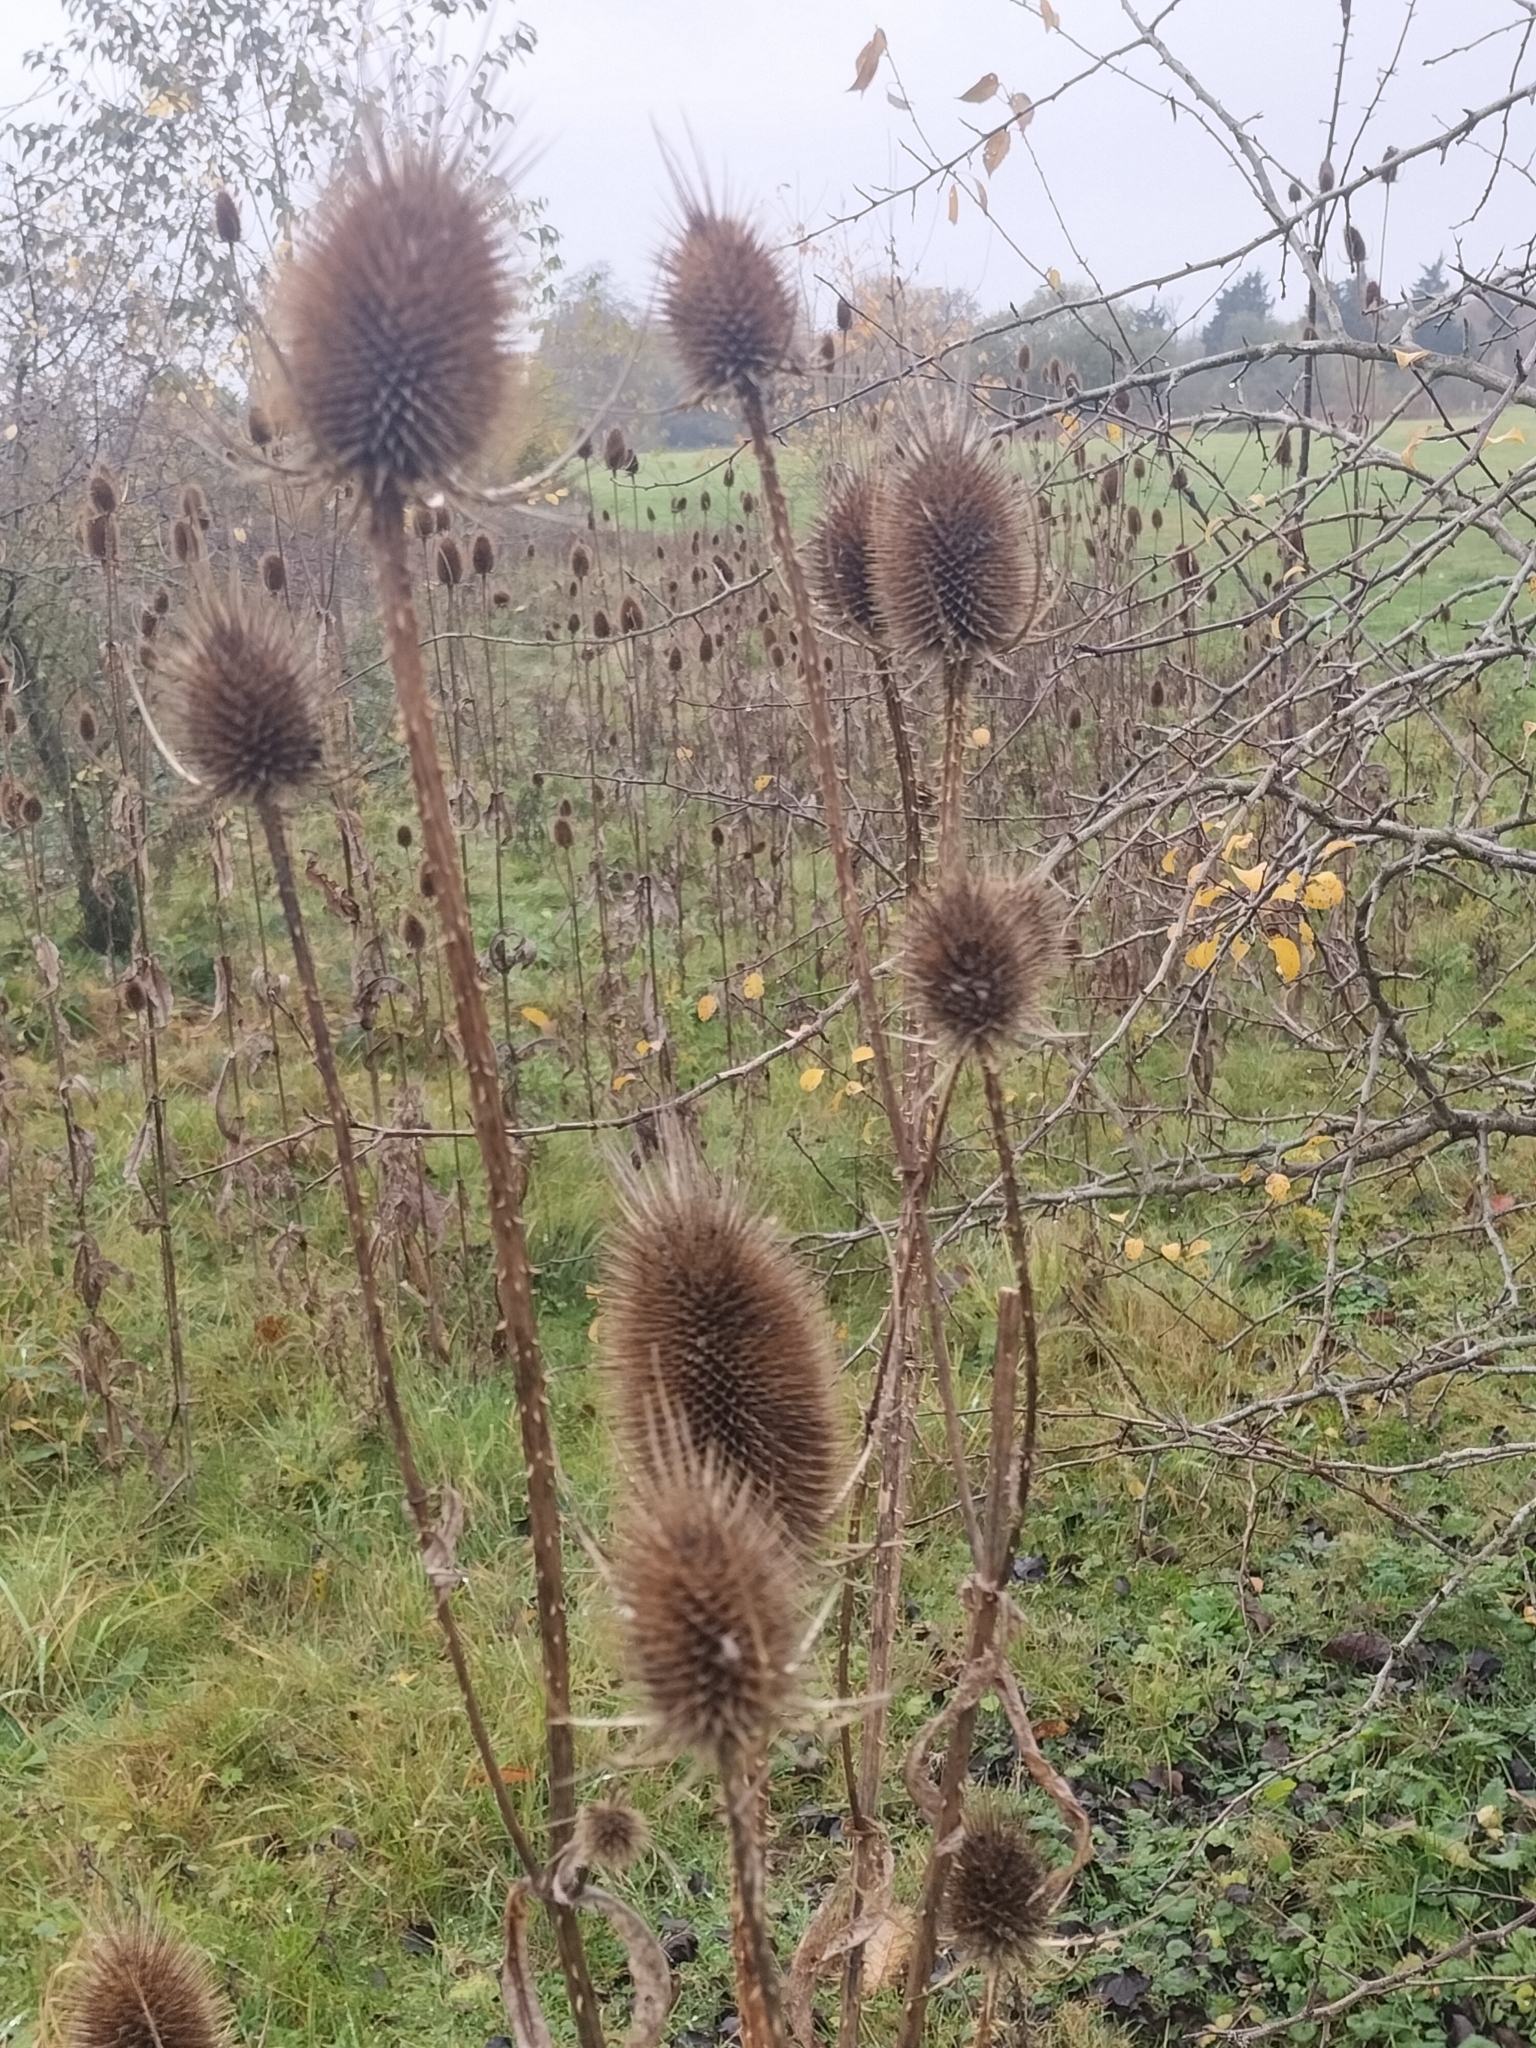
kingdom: Plantae
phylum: Tracheophyta
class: Magnoliopsida
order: Dipsacales
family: Caprifoliaceae
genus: Dipsacus
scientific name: Dipsacus fullonum
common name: Teasel
